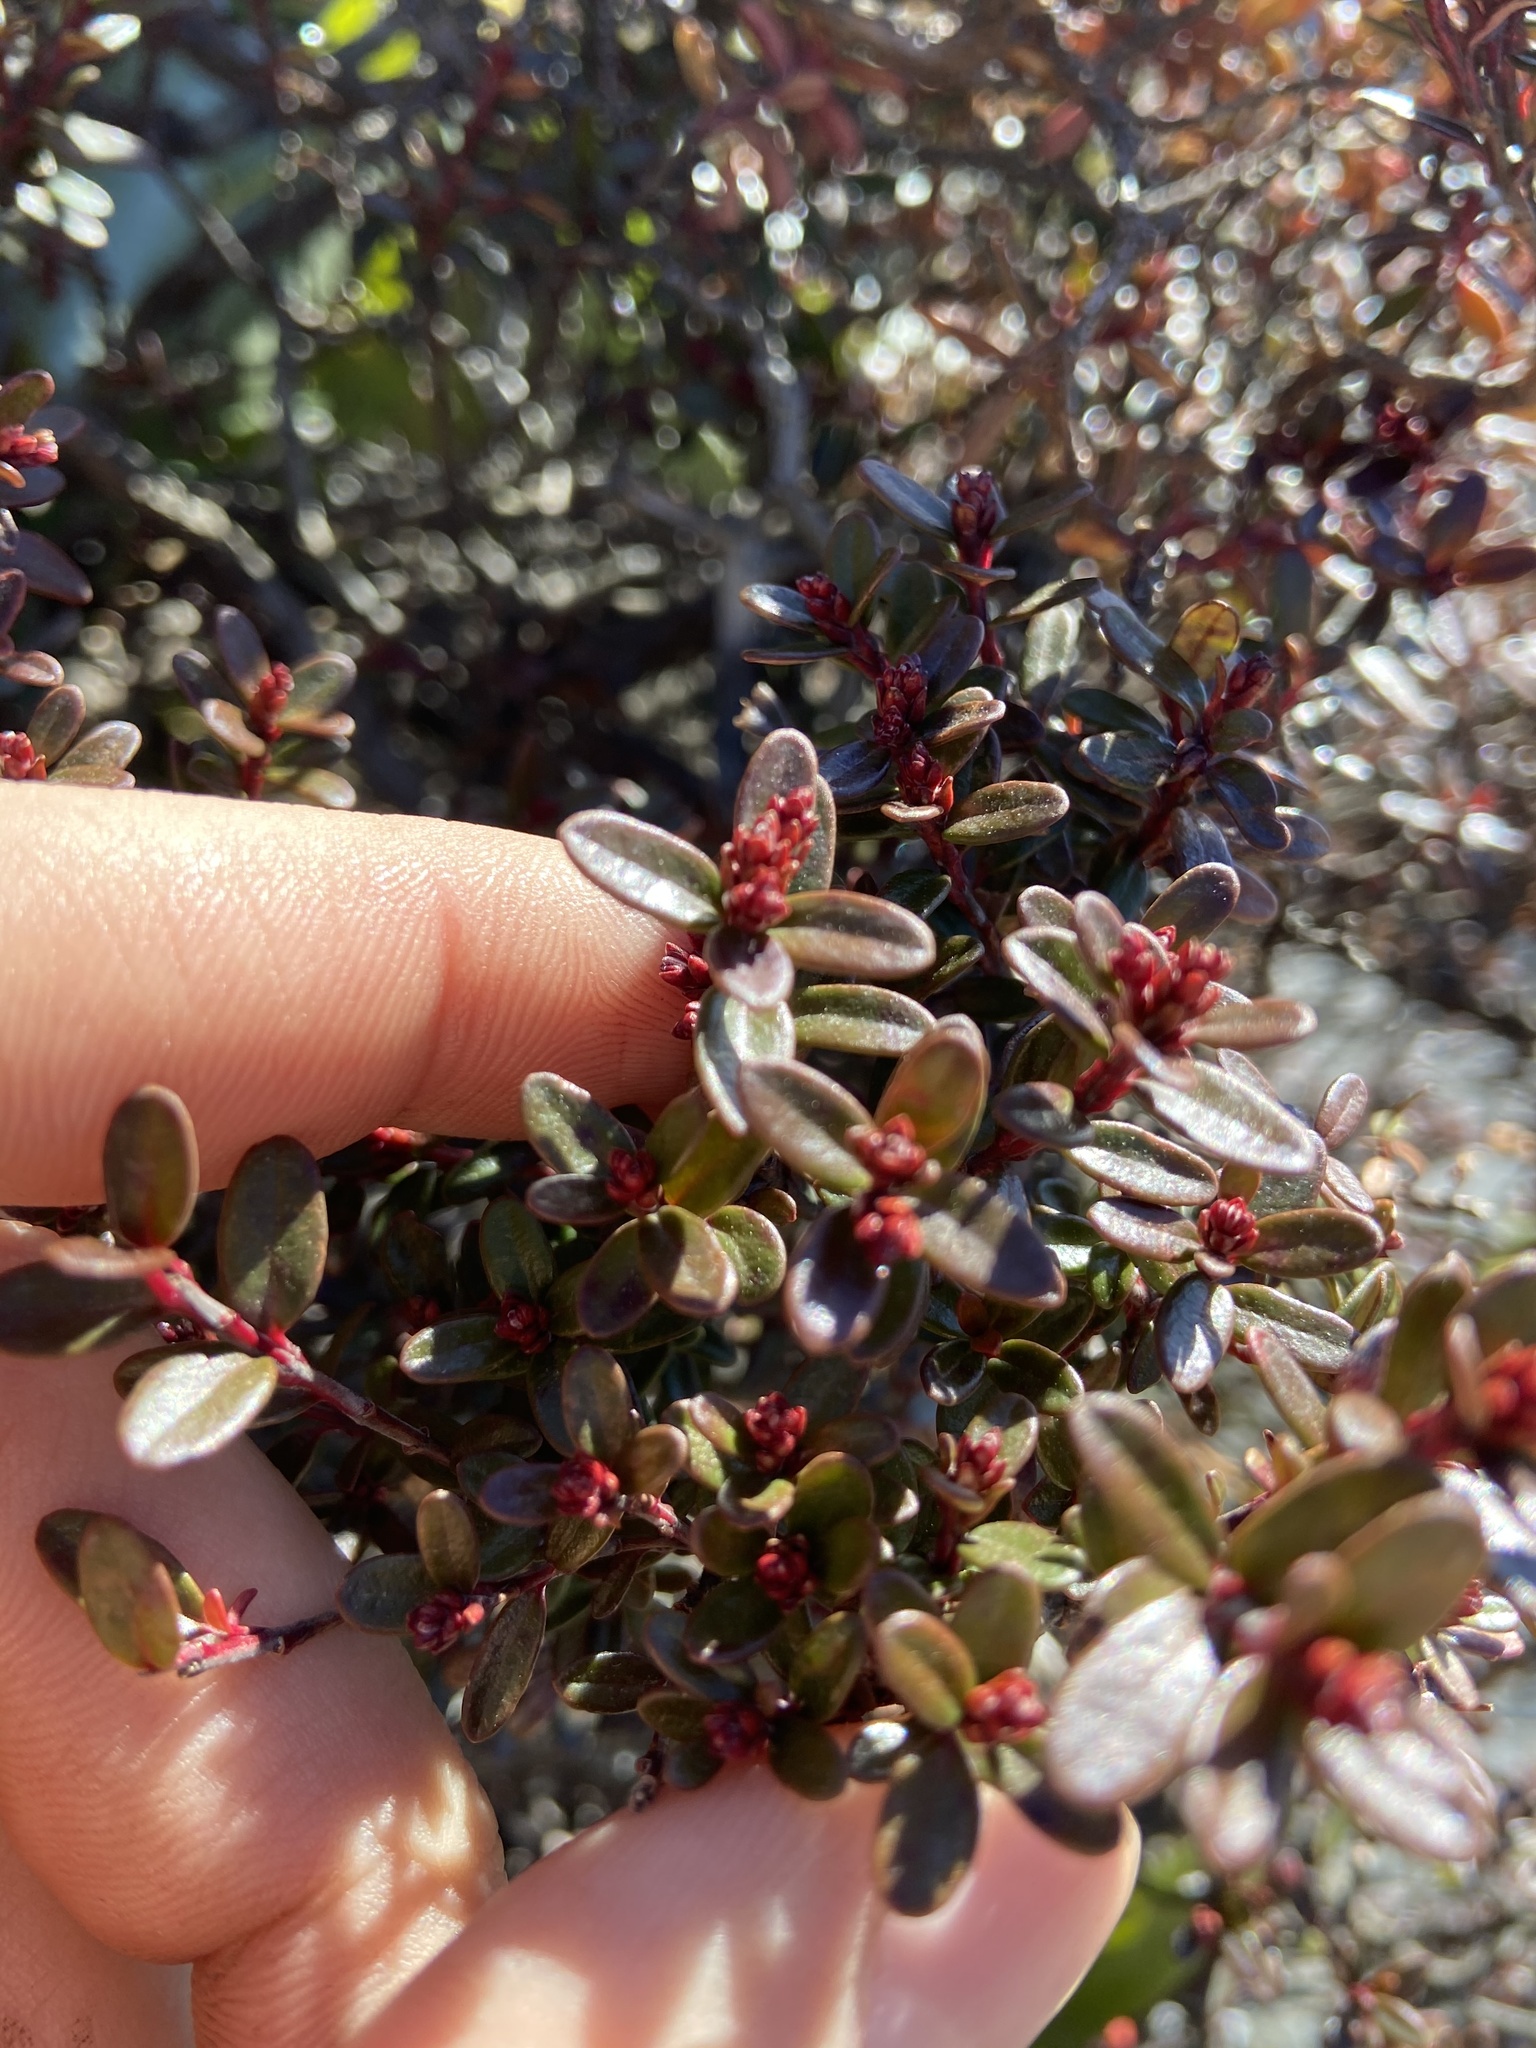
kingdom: Plantae
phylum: Tracheophyta
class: Magnoliopsida
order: Ericales
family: Ericaceae
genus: Kalmia
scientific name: Kalmia buxifolia
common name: Sandmyrtle
